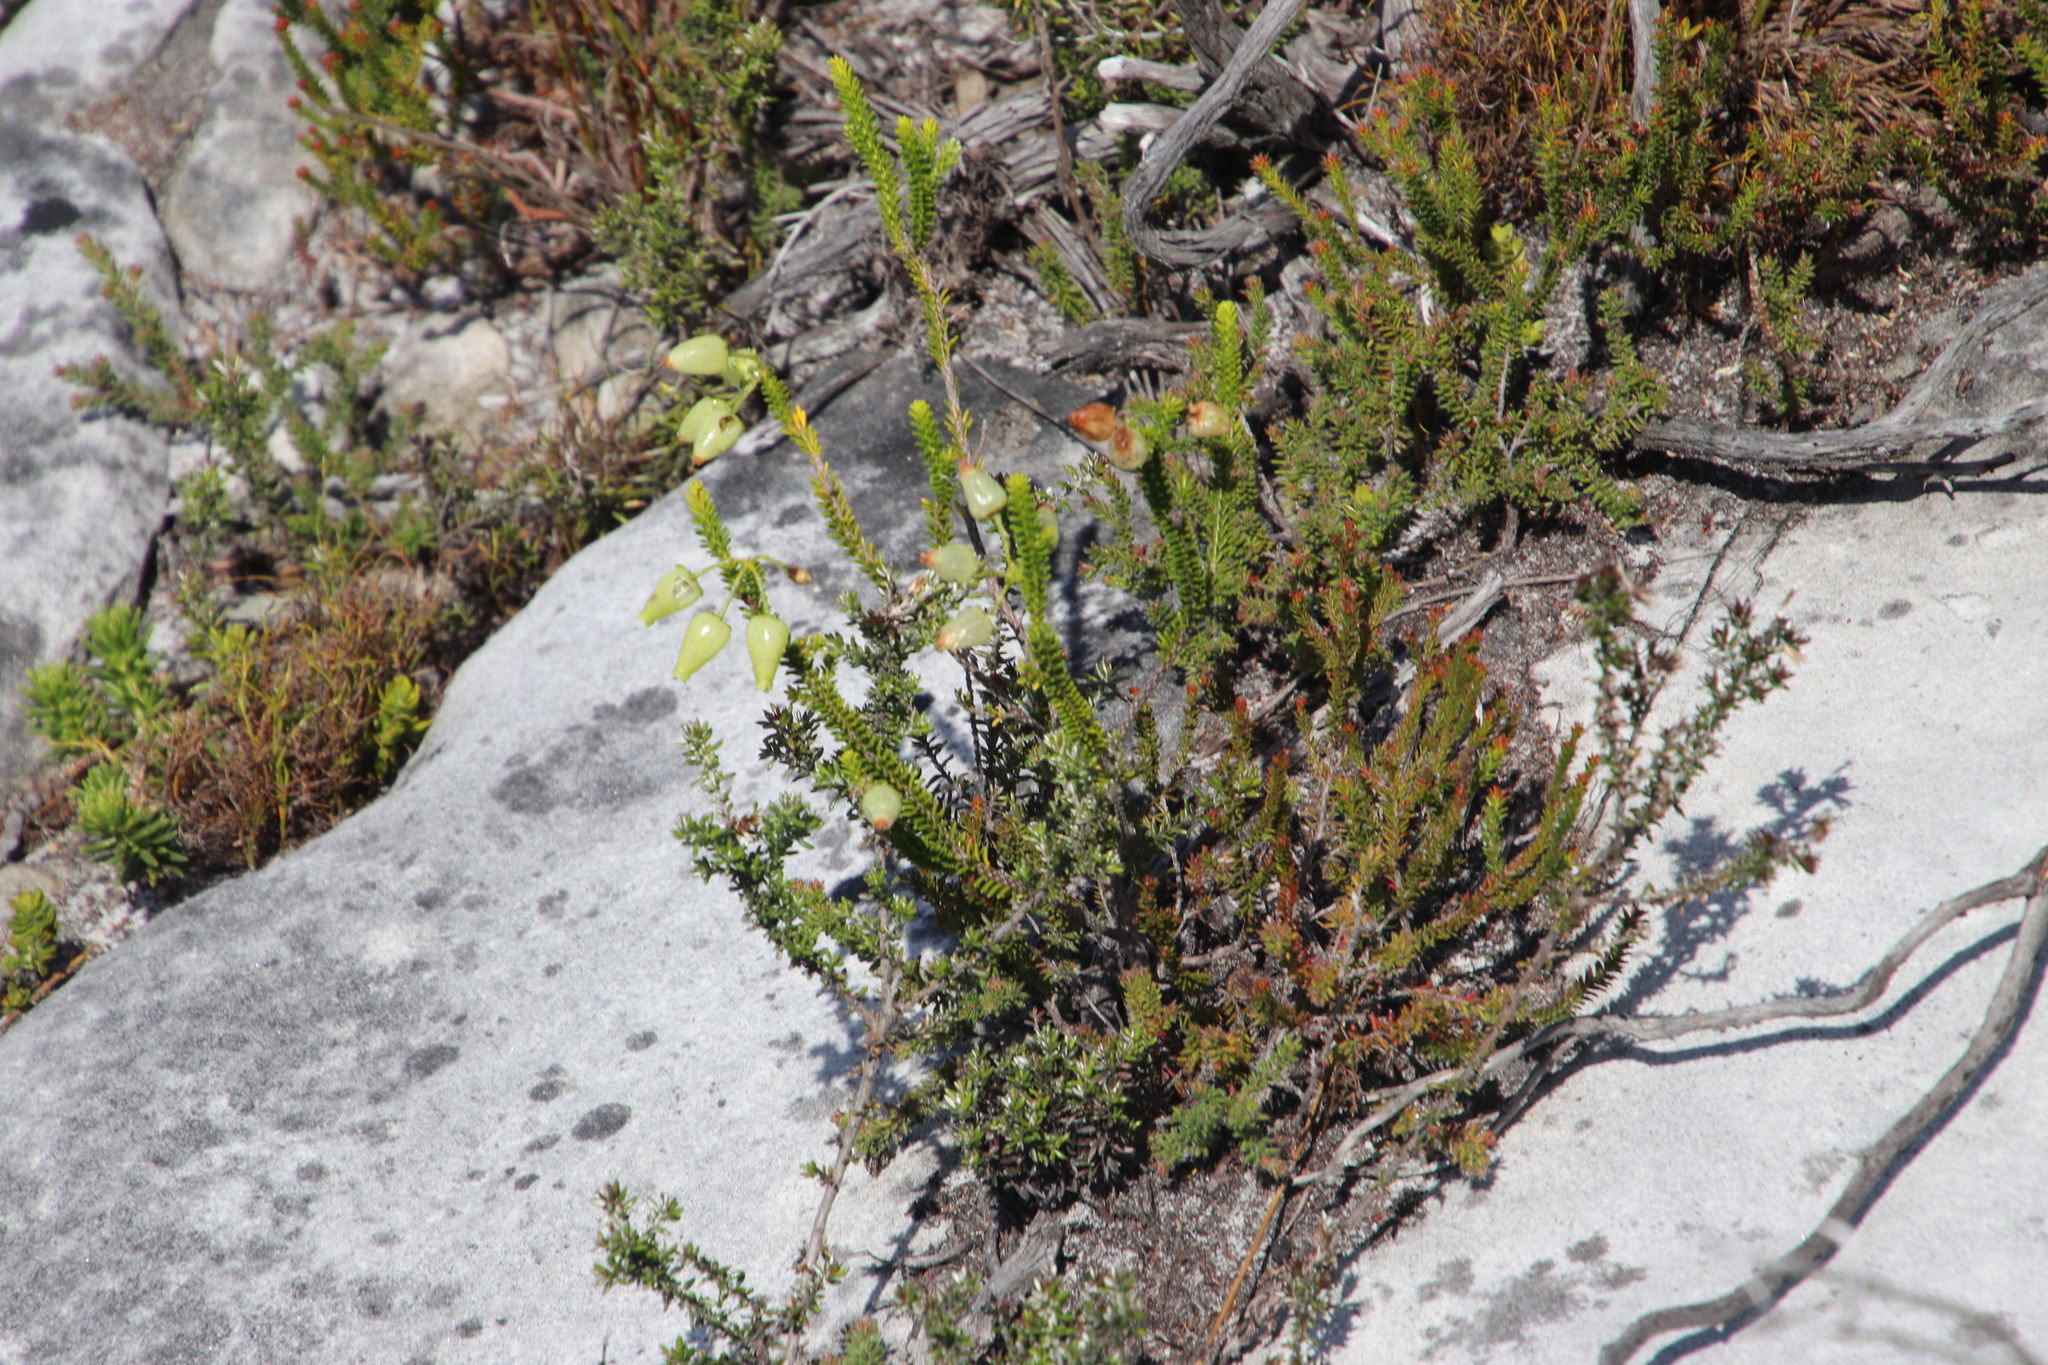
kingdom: Plantae
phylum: Tracheophyta
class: Magnoliopsida
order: Ericales
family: Ericaceae
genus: Erica
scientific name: Erica urna-viridis
